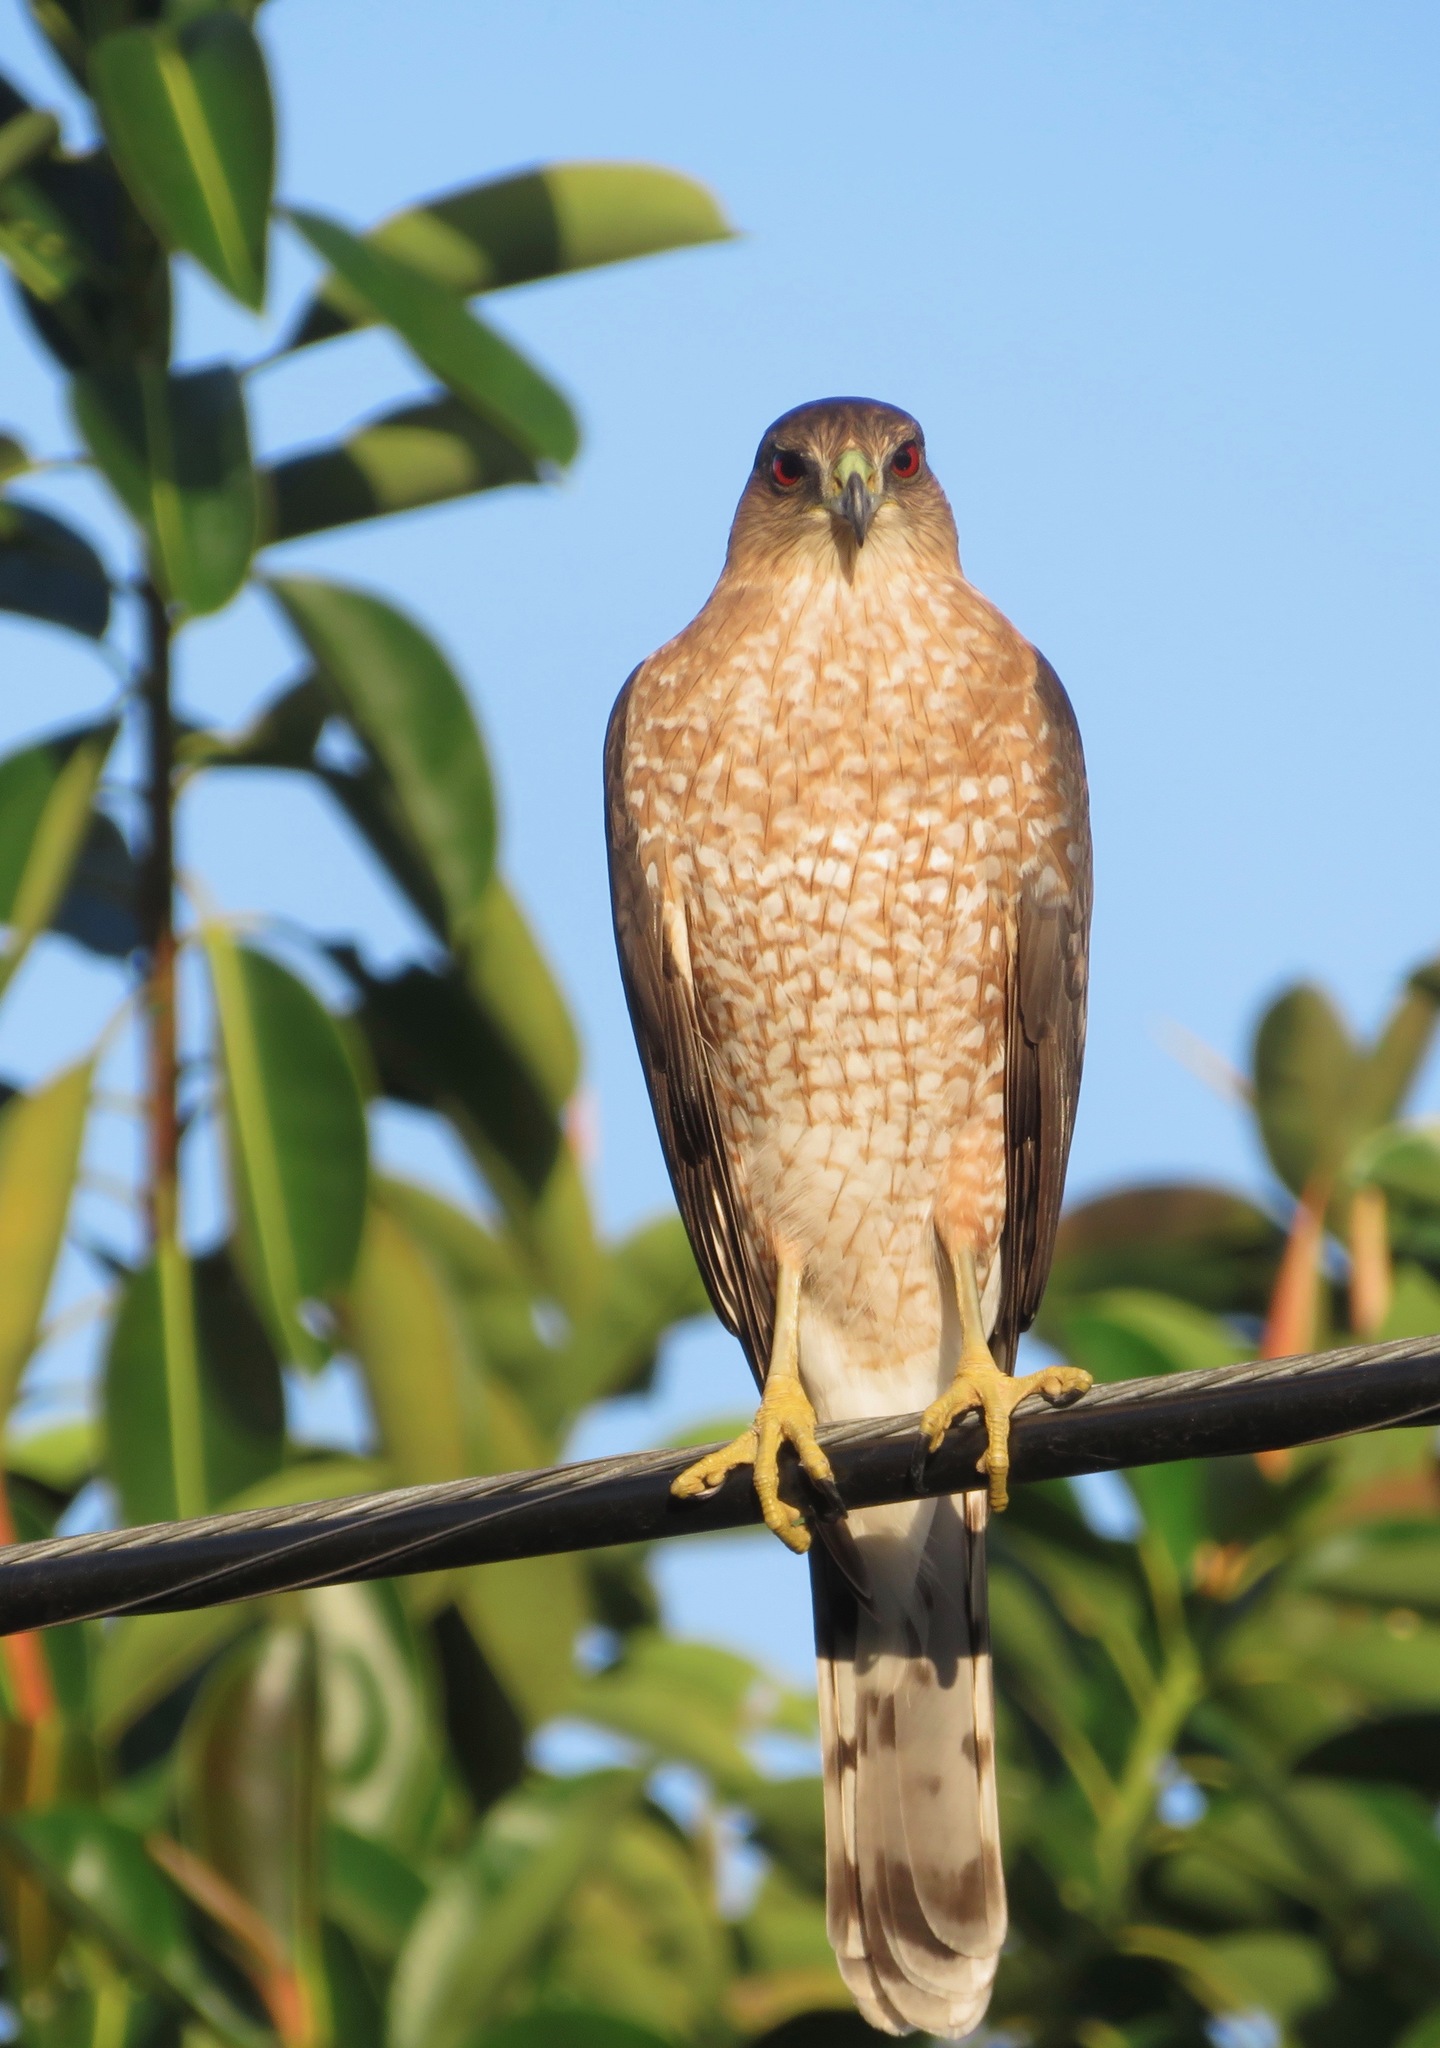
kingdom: Animalia
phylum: Chordata
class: Aves
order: Accipitriformes
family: Accipitridae
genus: Accipiter
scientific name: Accipiter cooperii
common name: Cooper's hawk
